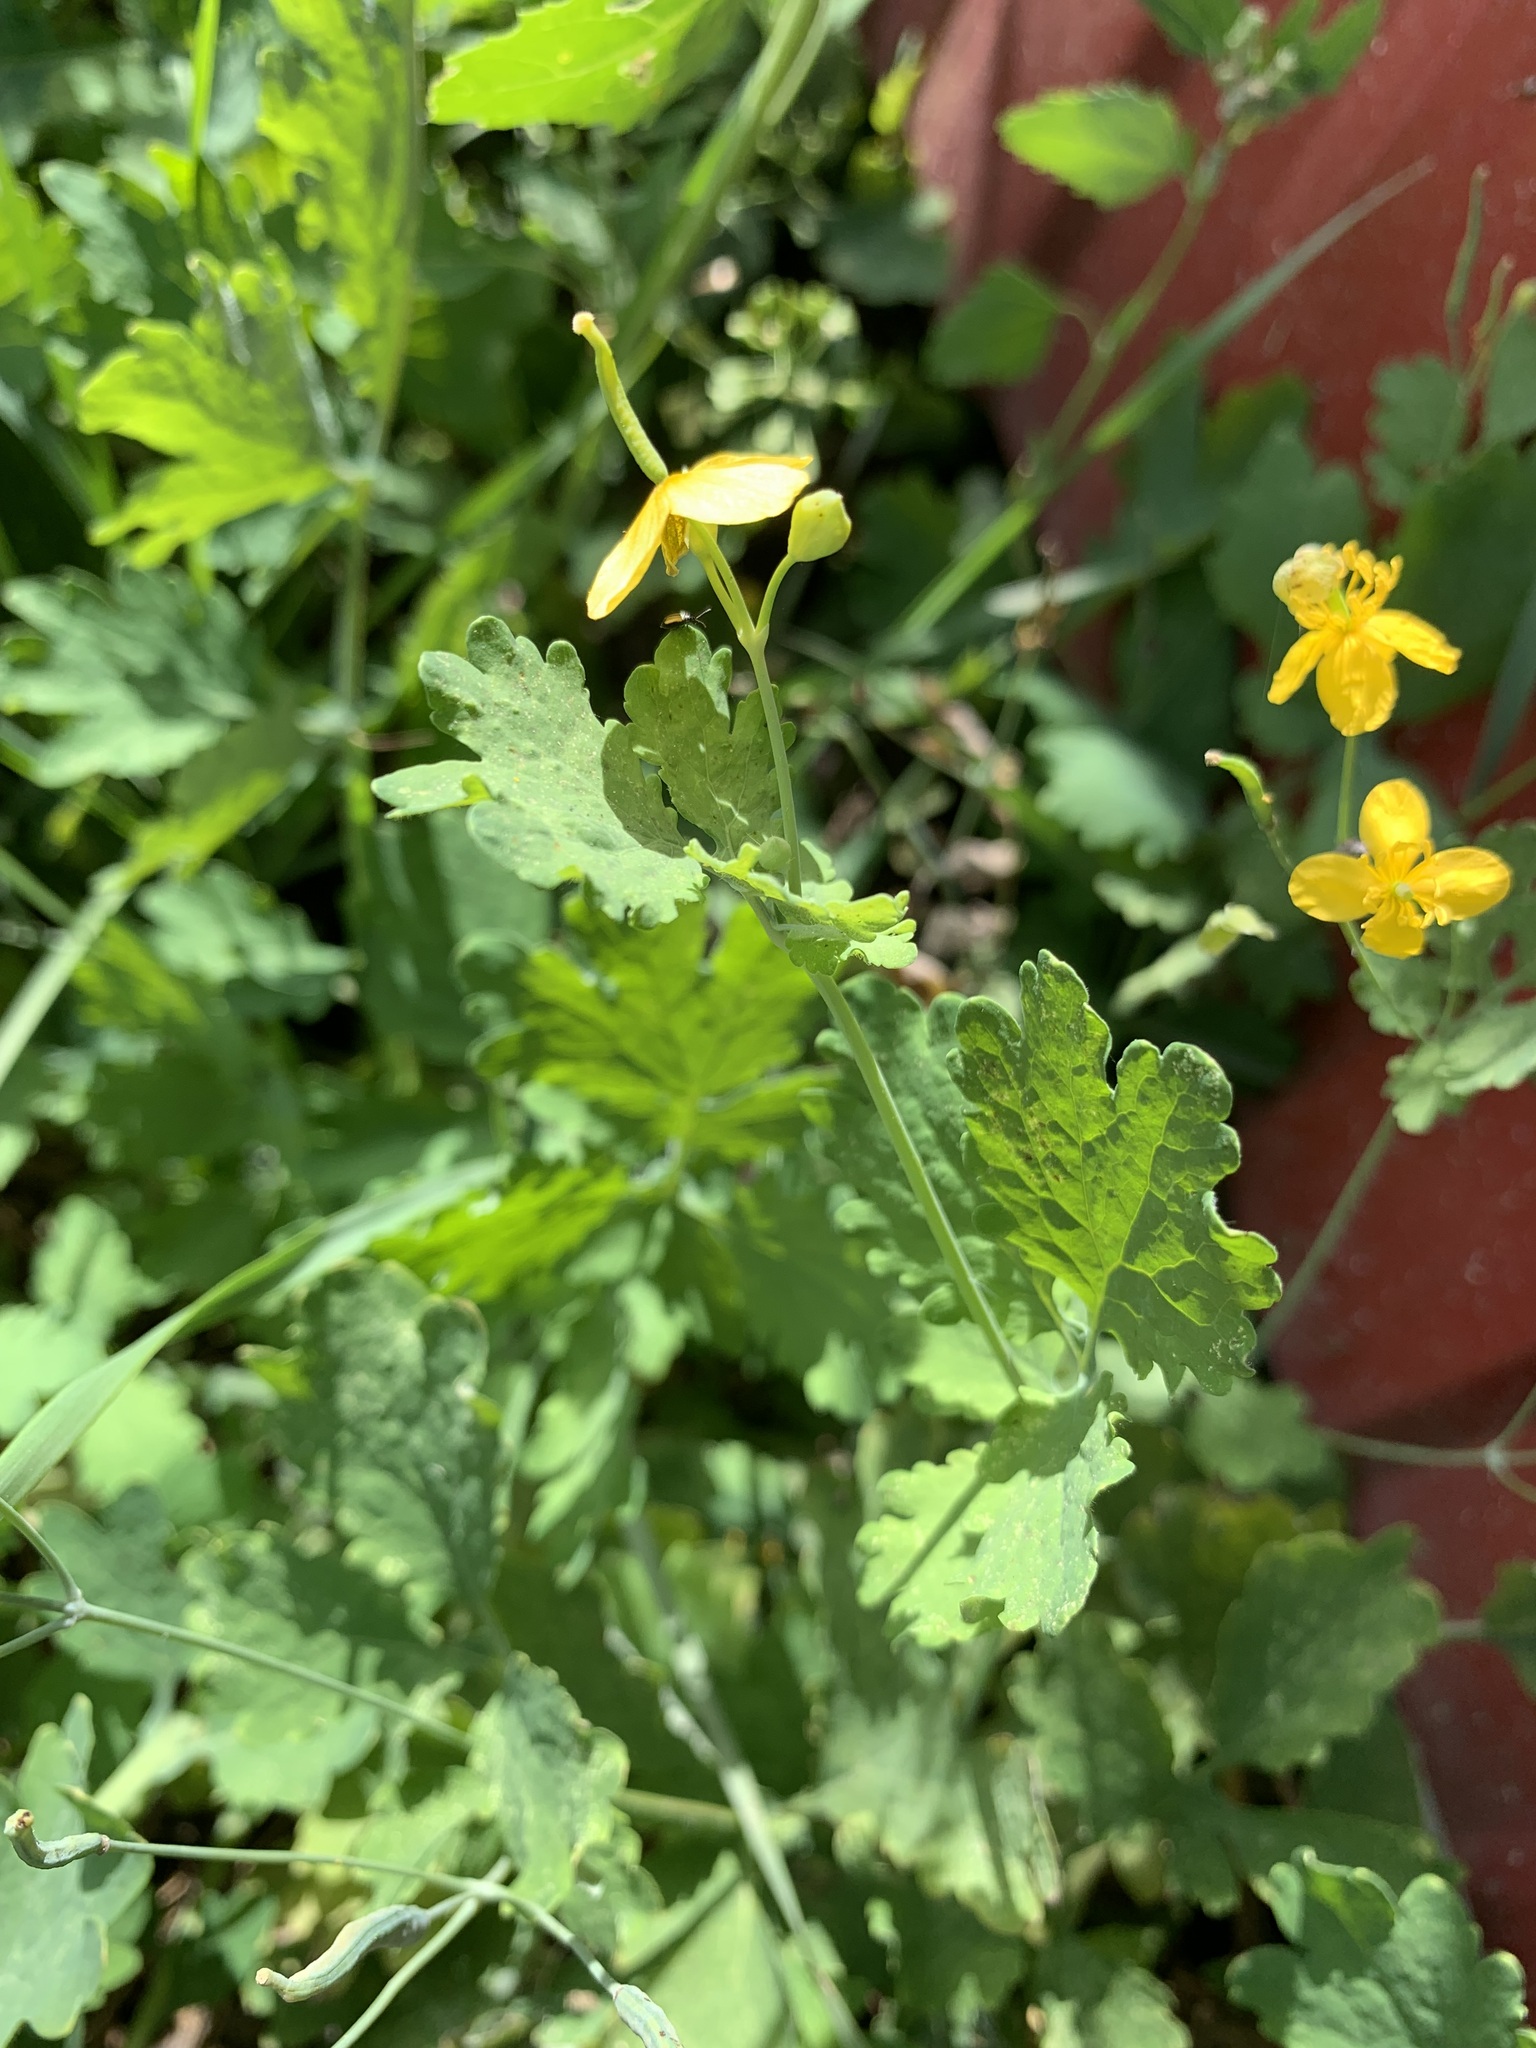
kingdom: Plantae
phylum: Tracheophyta
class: Magnoliopsida
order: Ranunculales
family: Papaveraceae
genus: Chelidonium
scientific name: Chelidonium majus
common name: Greater celandine
